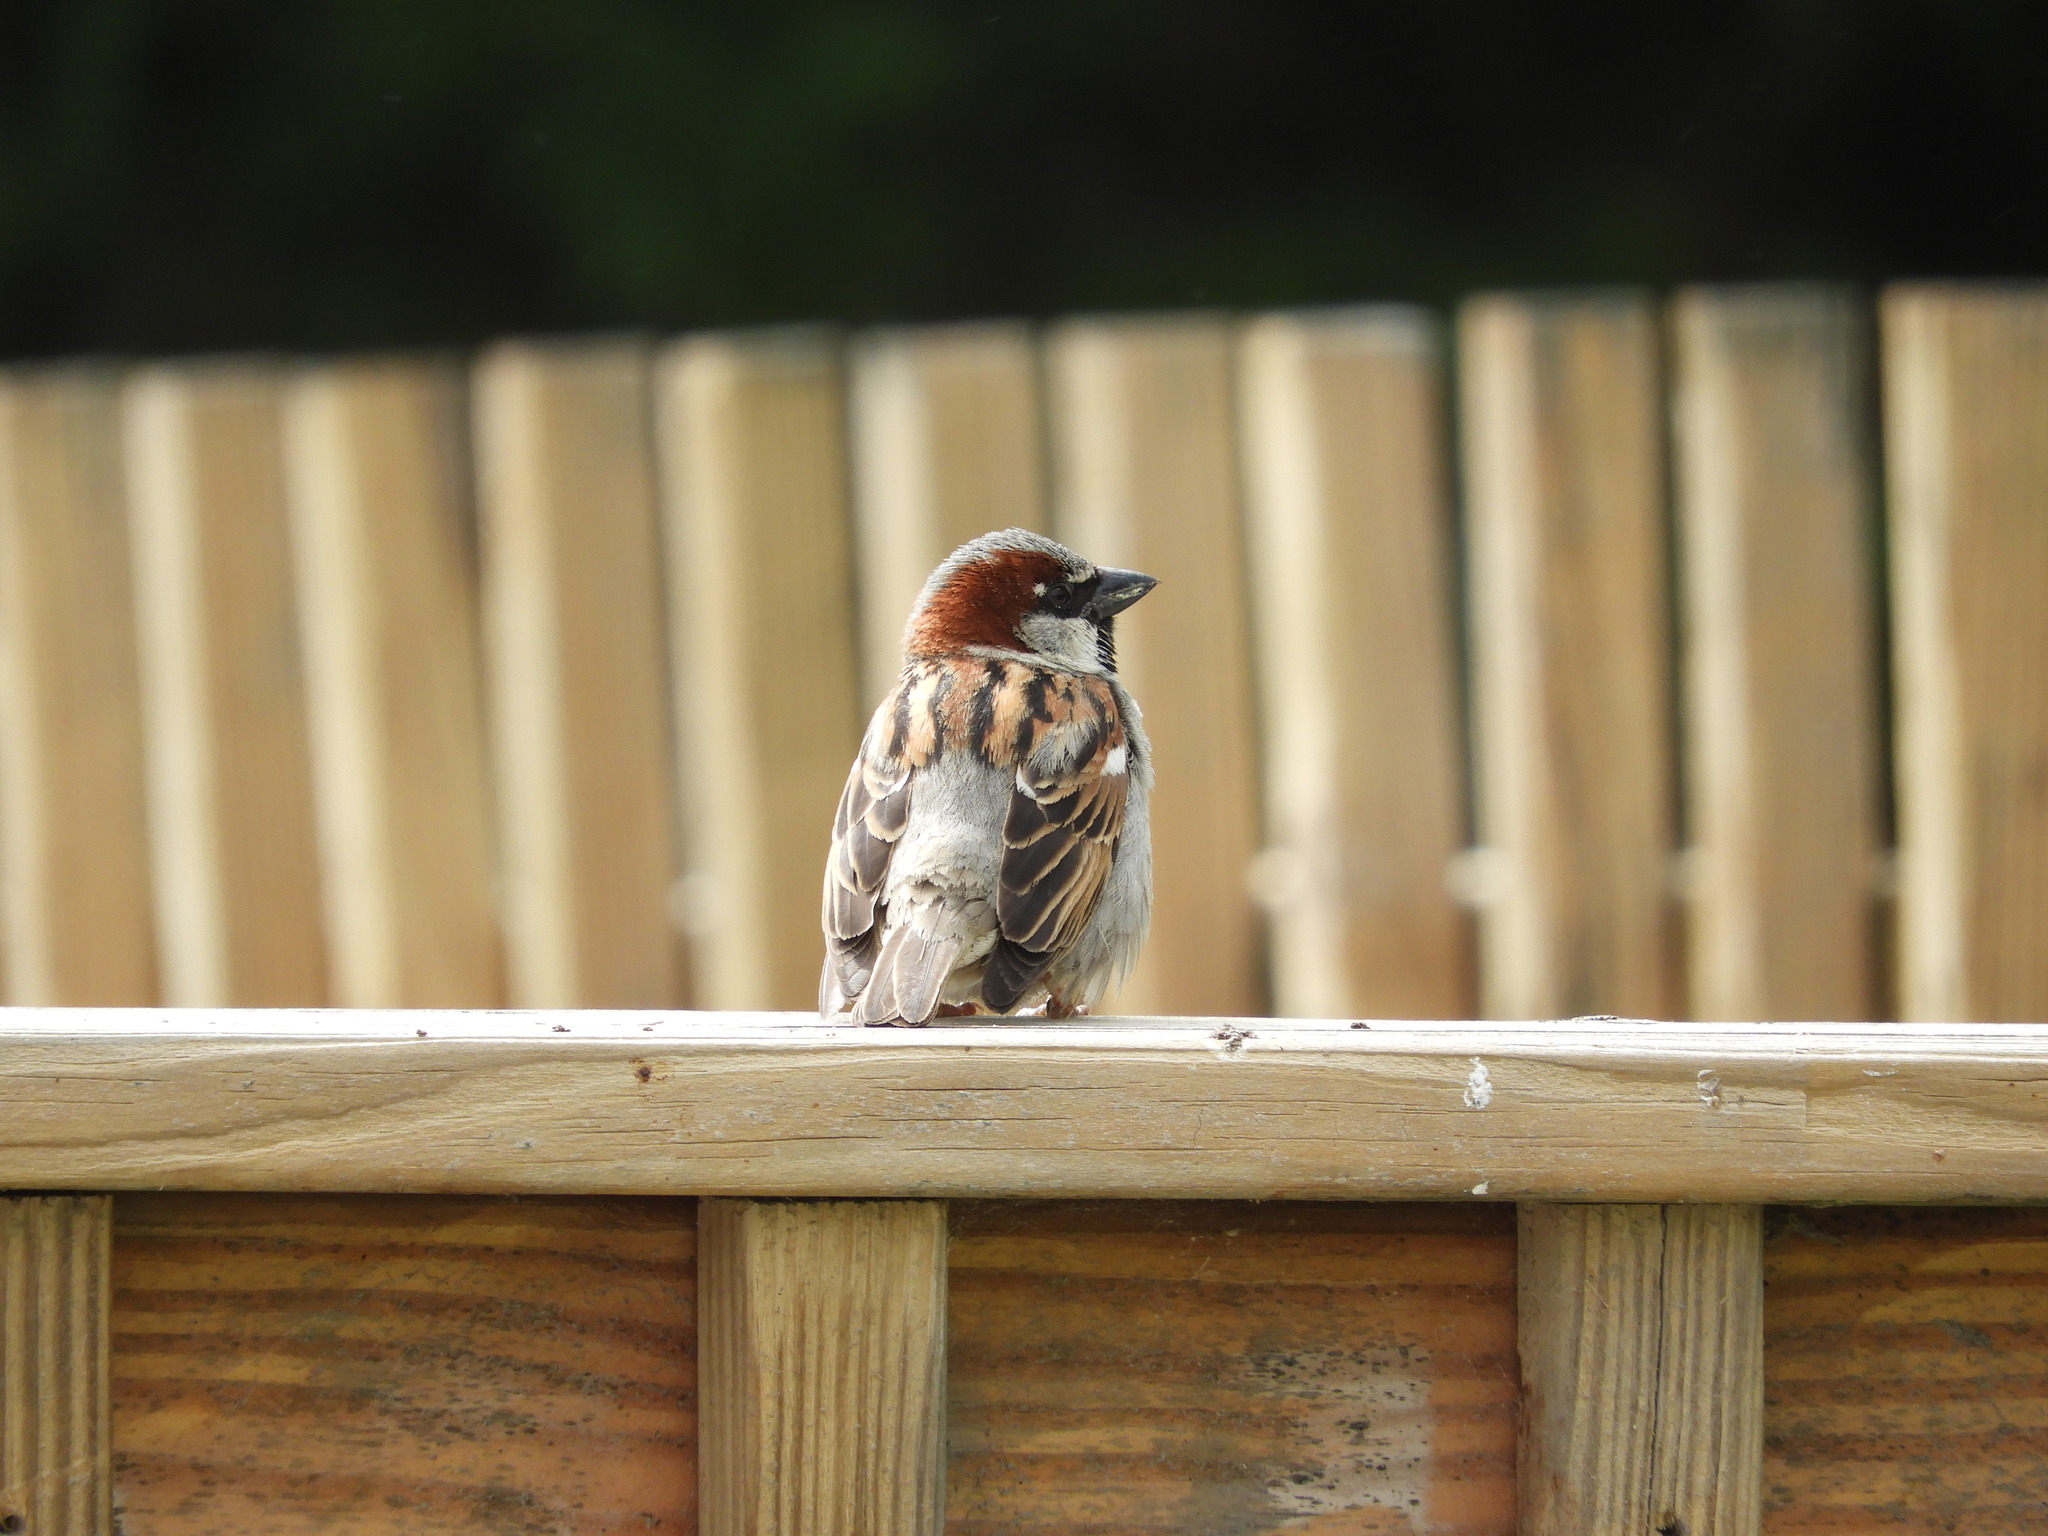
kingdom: Animalia
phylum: Chordata
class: Aves
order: Passeriformes
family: Passeridae
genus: Passer
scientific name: Passer domesticus
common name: House sparrow
